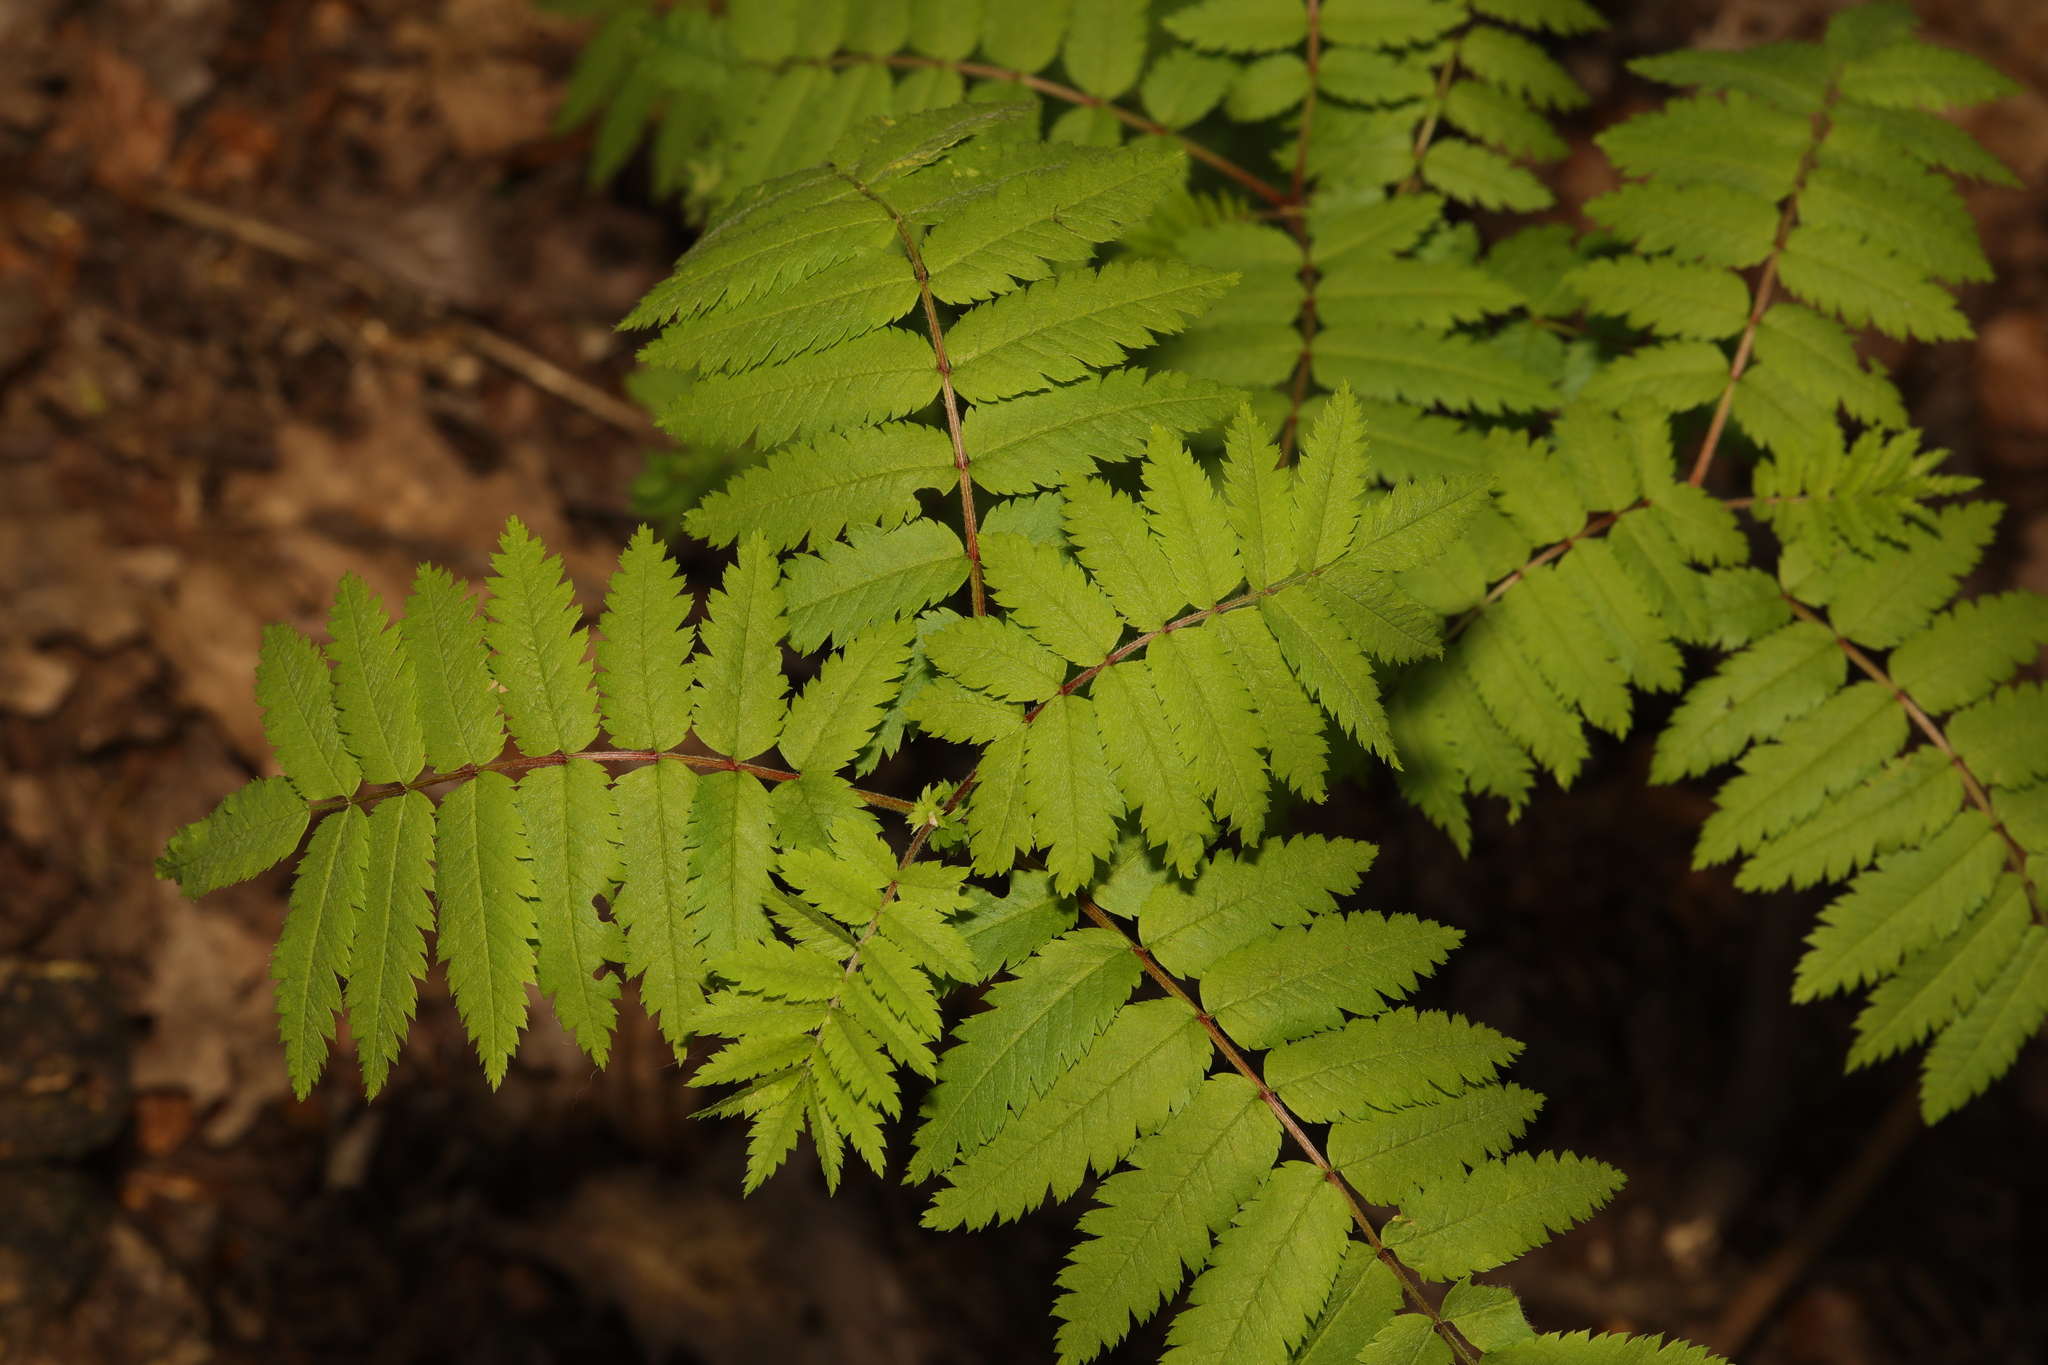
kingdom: Plantae
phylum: Tracheophyta
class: Magnoliopsida
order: Rosales
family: Rosaceae
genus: Sorbus
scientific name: Sorbus aucuparia
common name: Rowan
